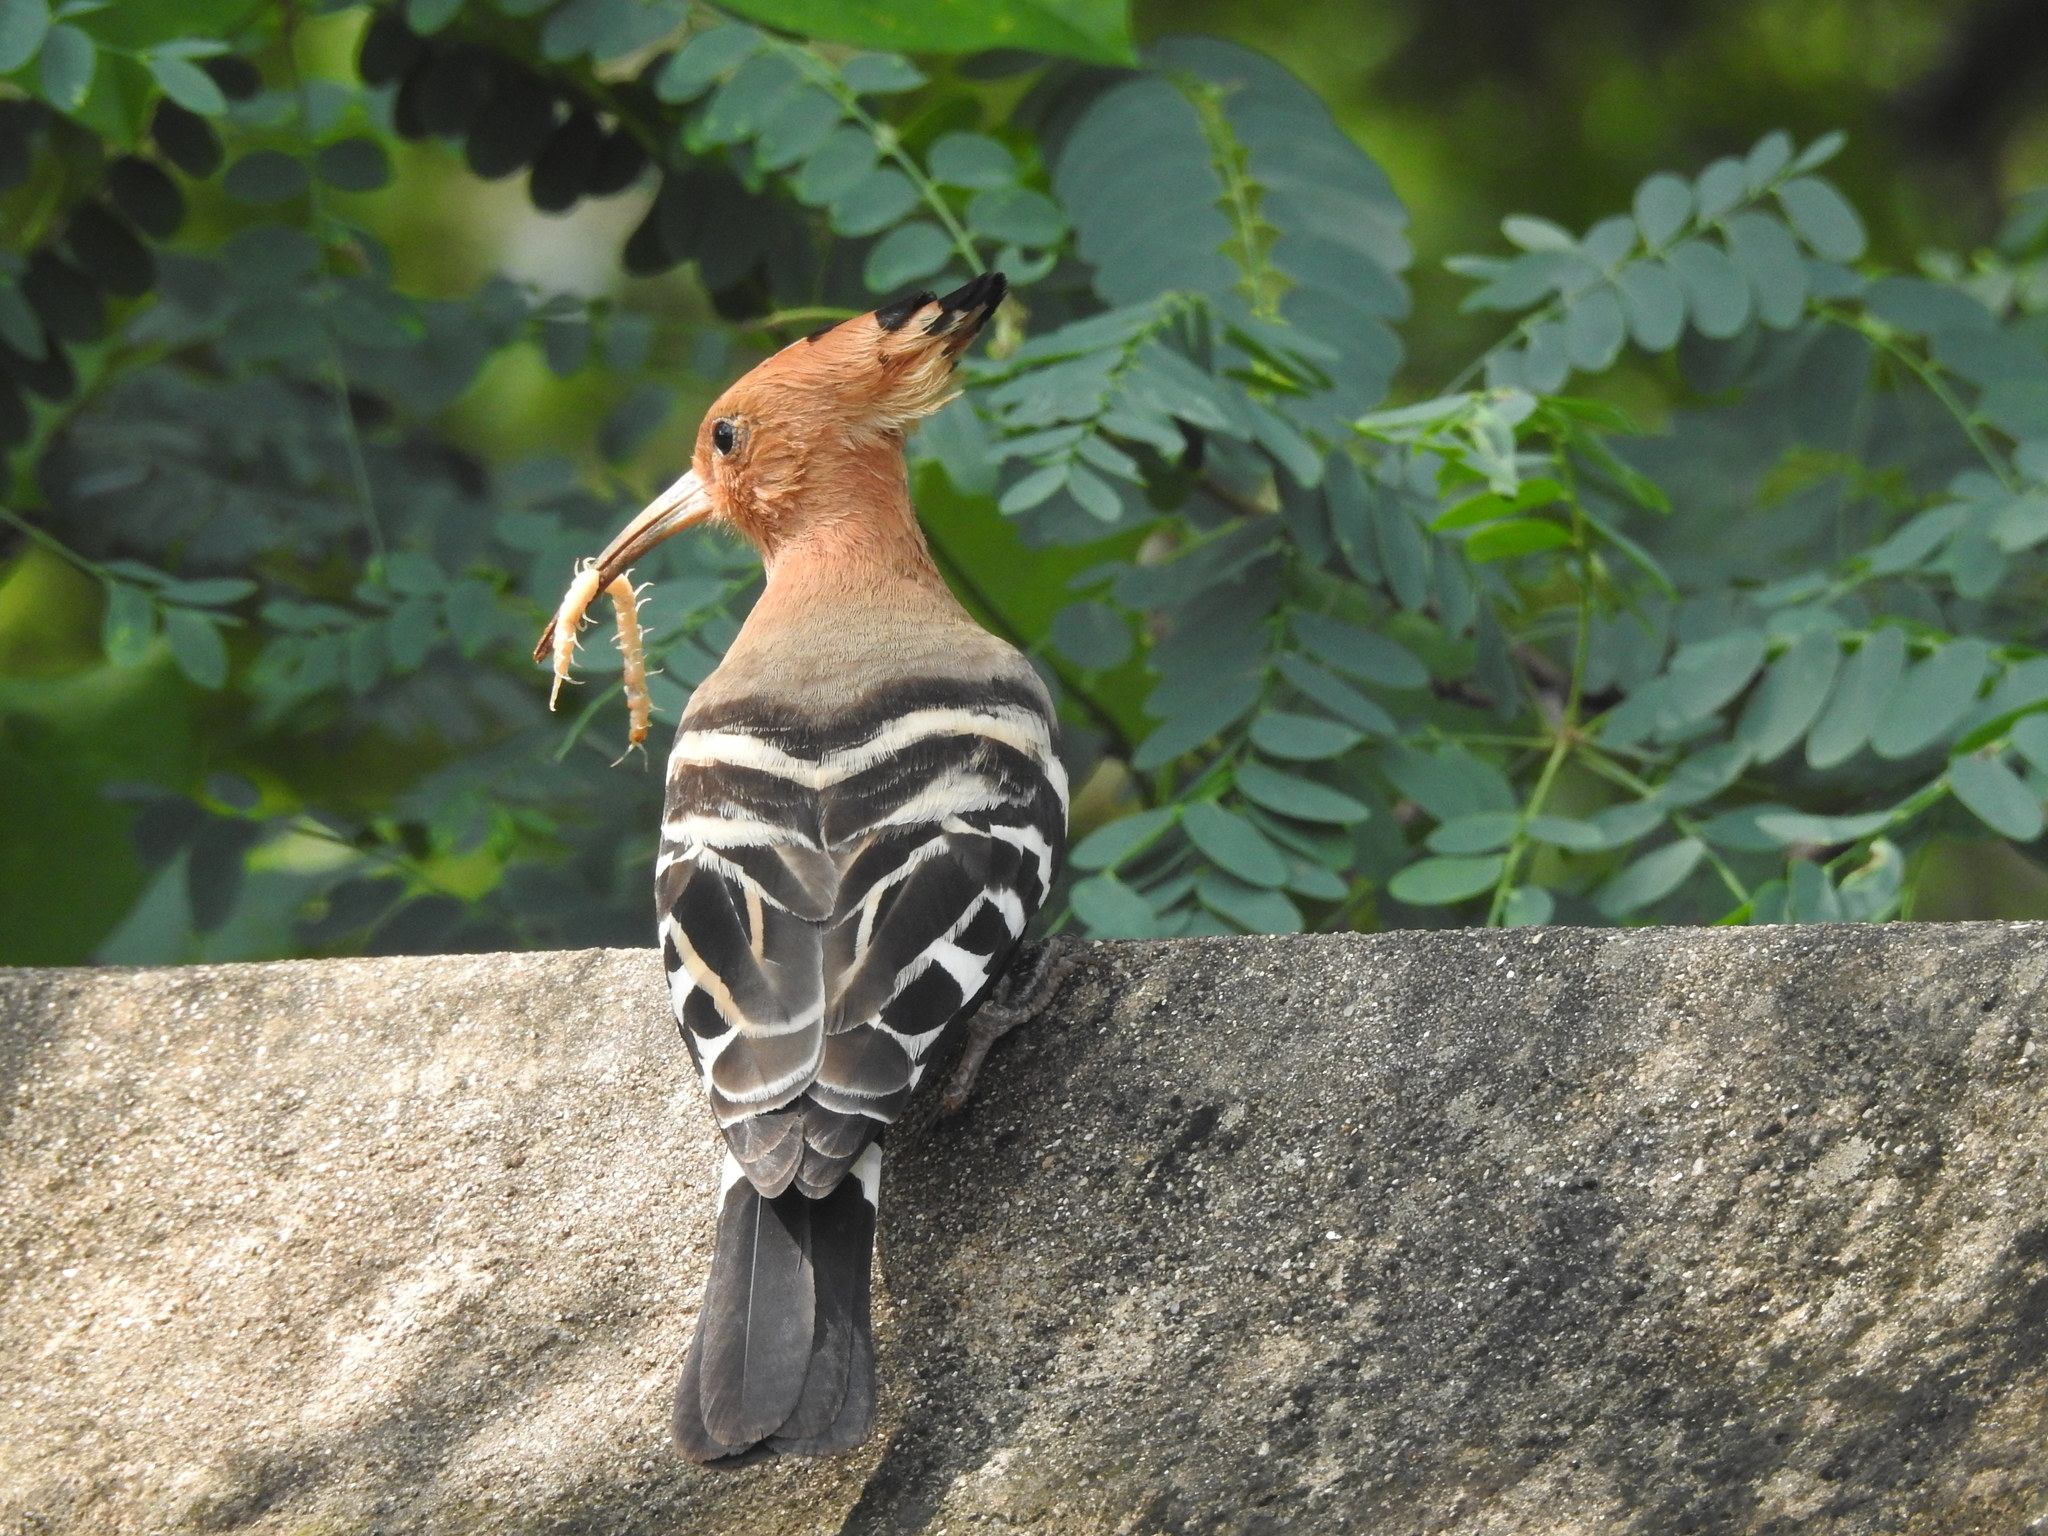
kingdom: Animalia
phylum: Chordata
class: Aves
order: Bucerotiformes
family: Upupidae
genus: Upupa
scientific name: Upupa epops
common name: Eurasian hoopoe
